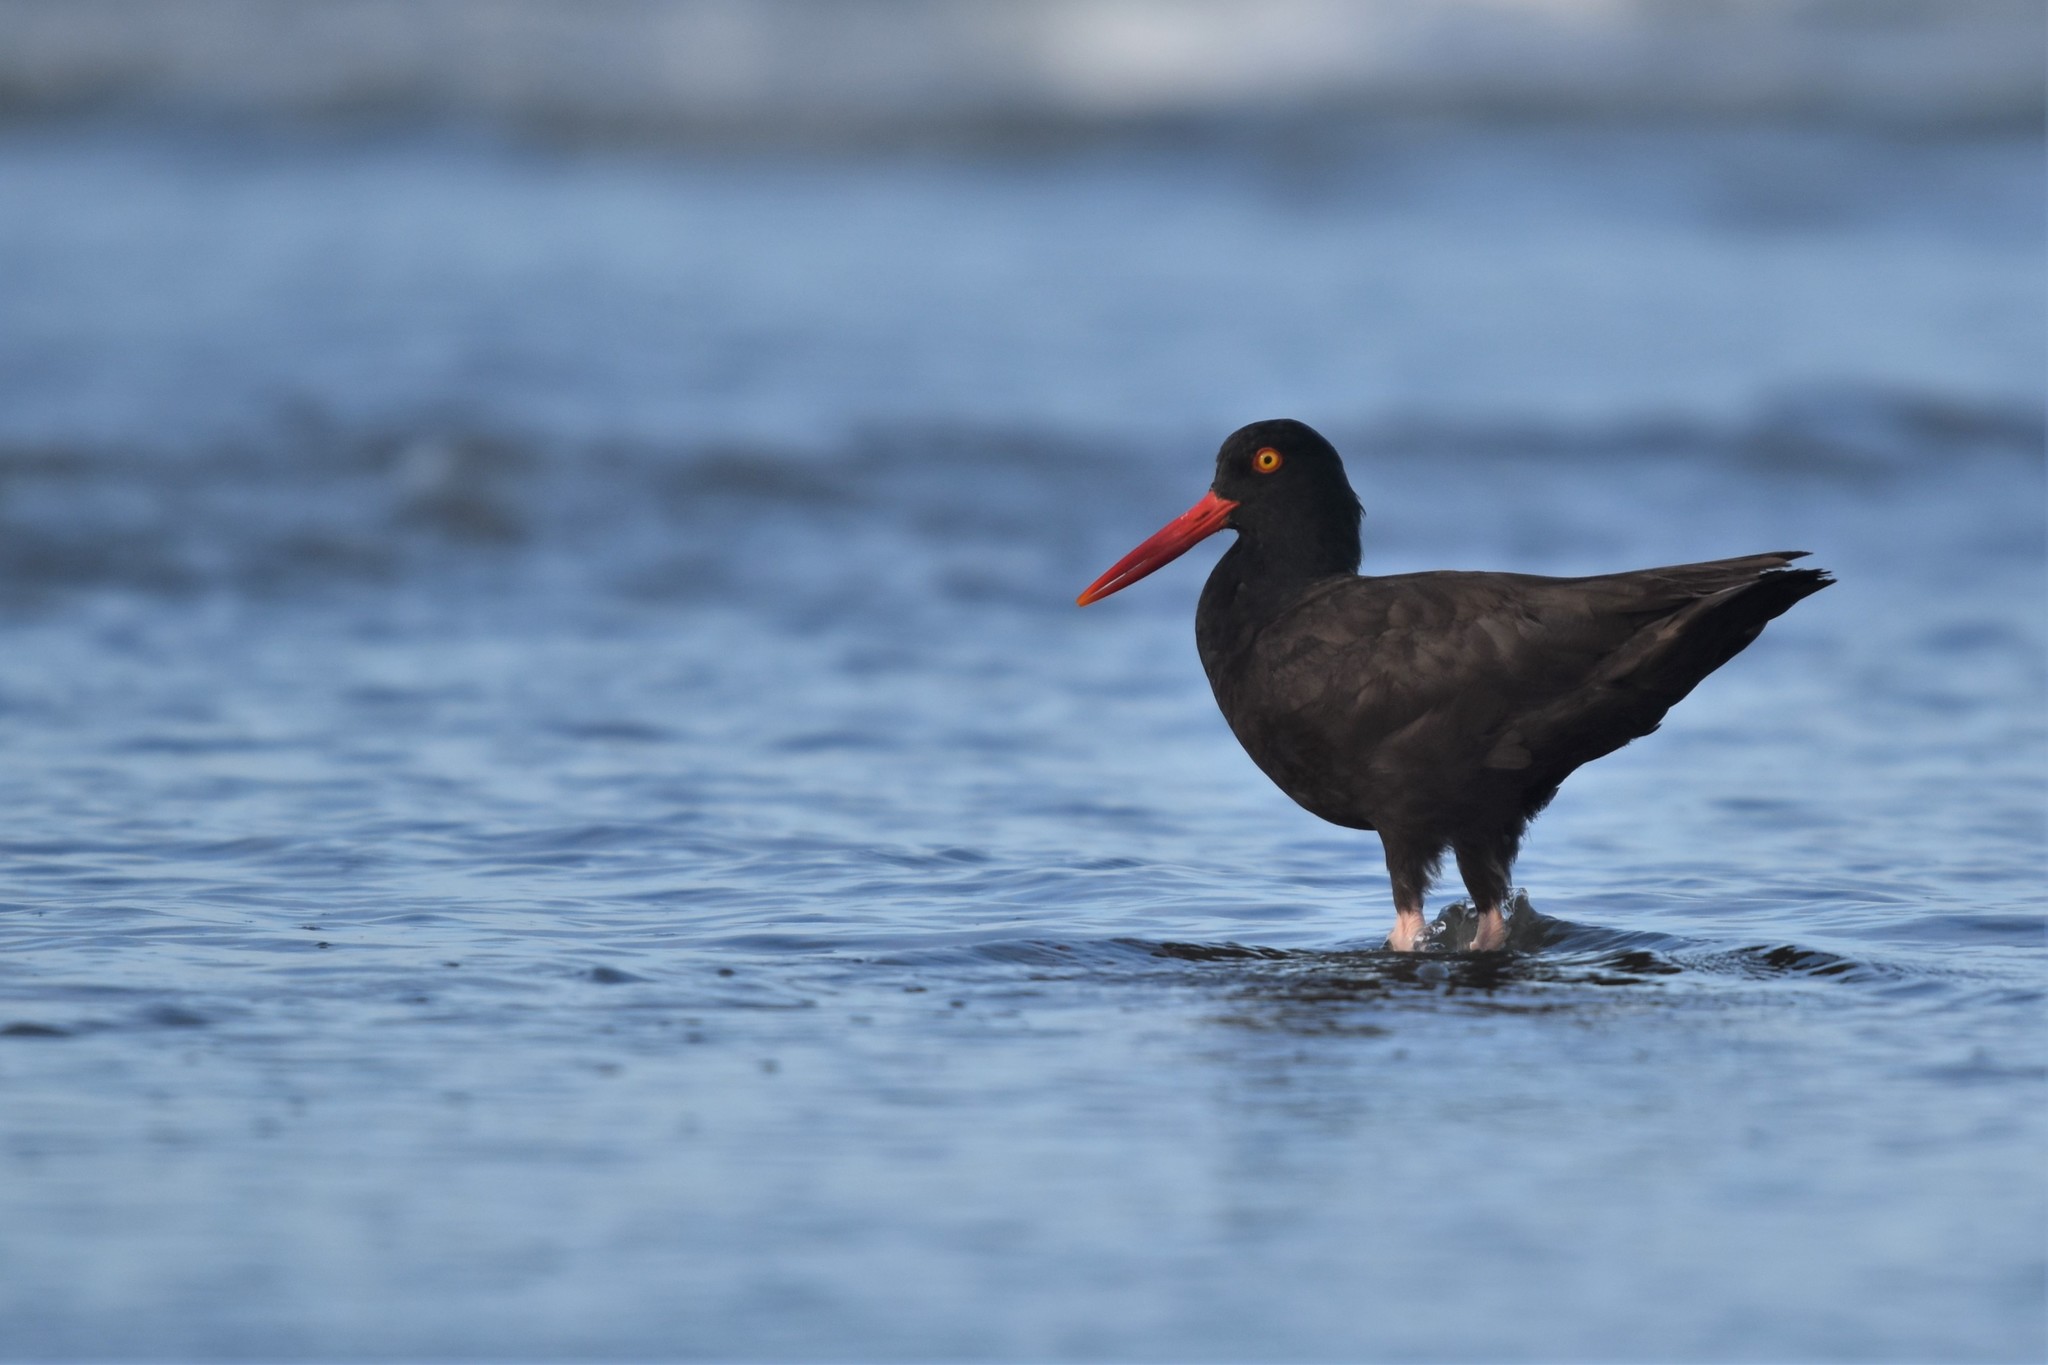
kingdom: Animalia
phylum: Chordata
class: Aves
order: Charadriiformes
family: Haematopodidae
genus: Haematopus
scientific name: Haematopus bachmani
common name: Black oystercatcher
